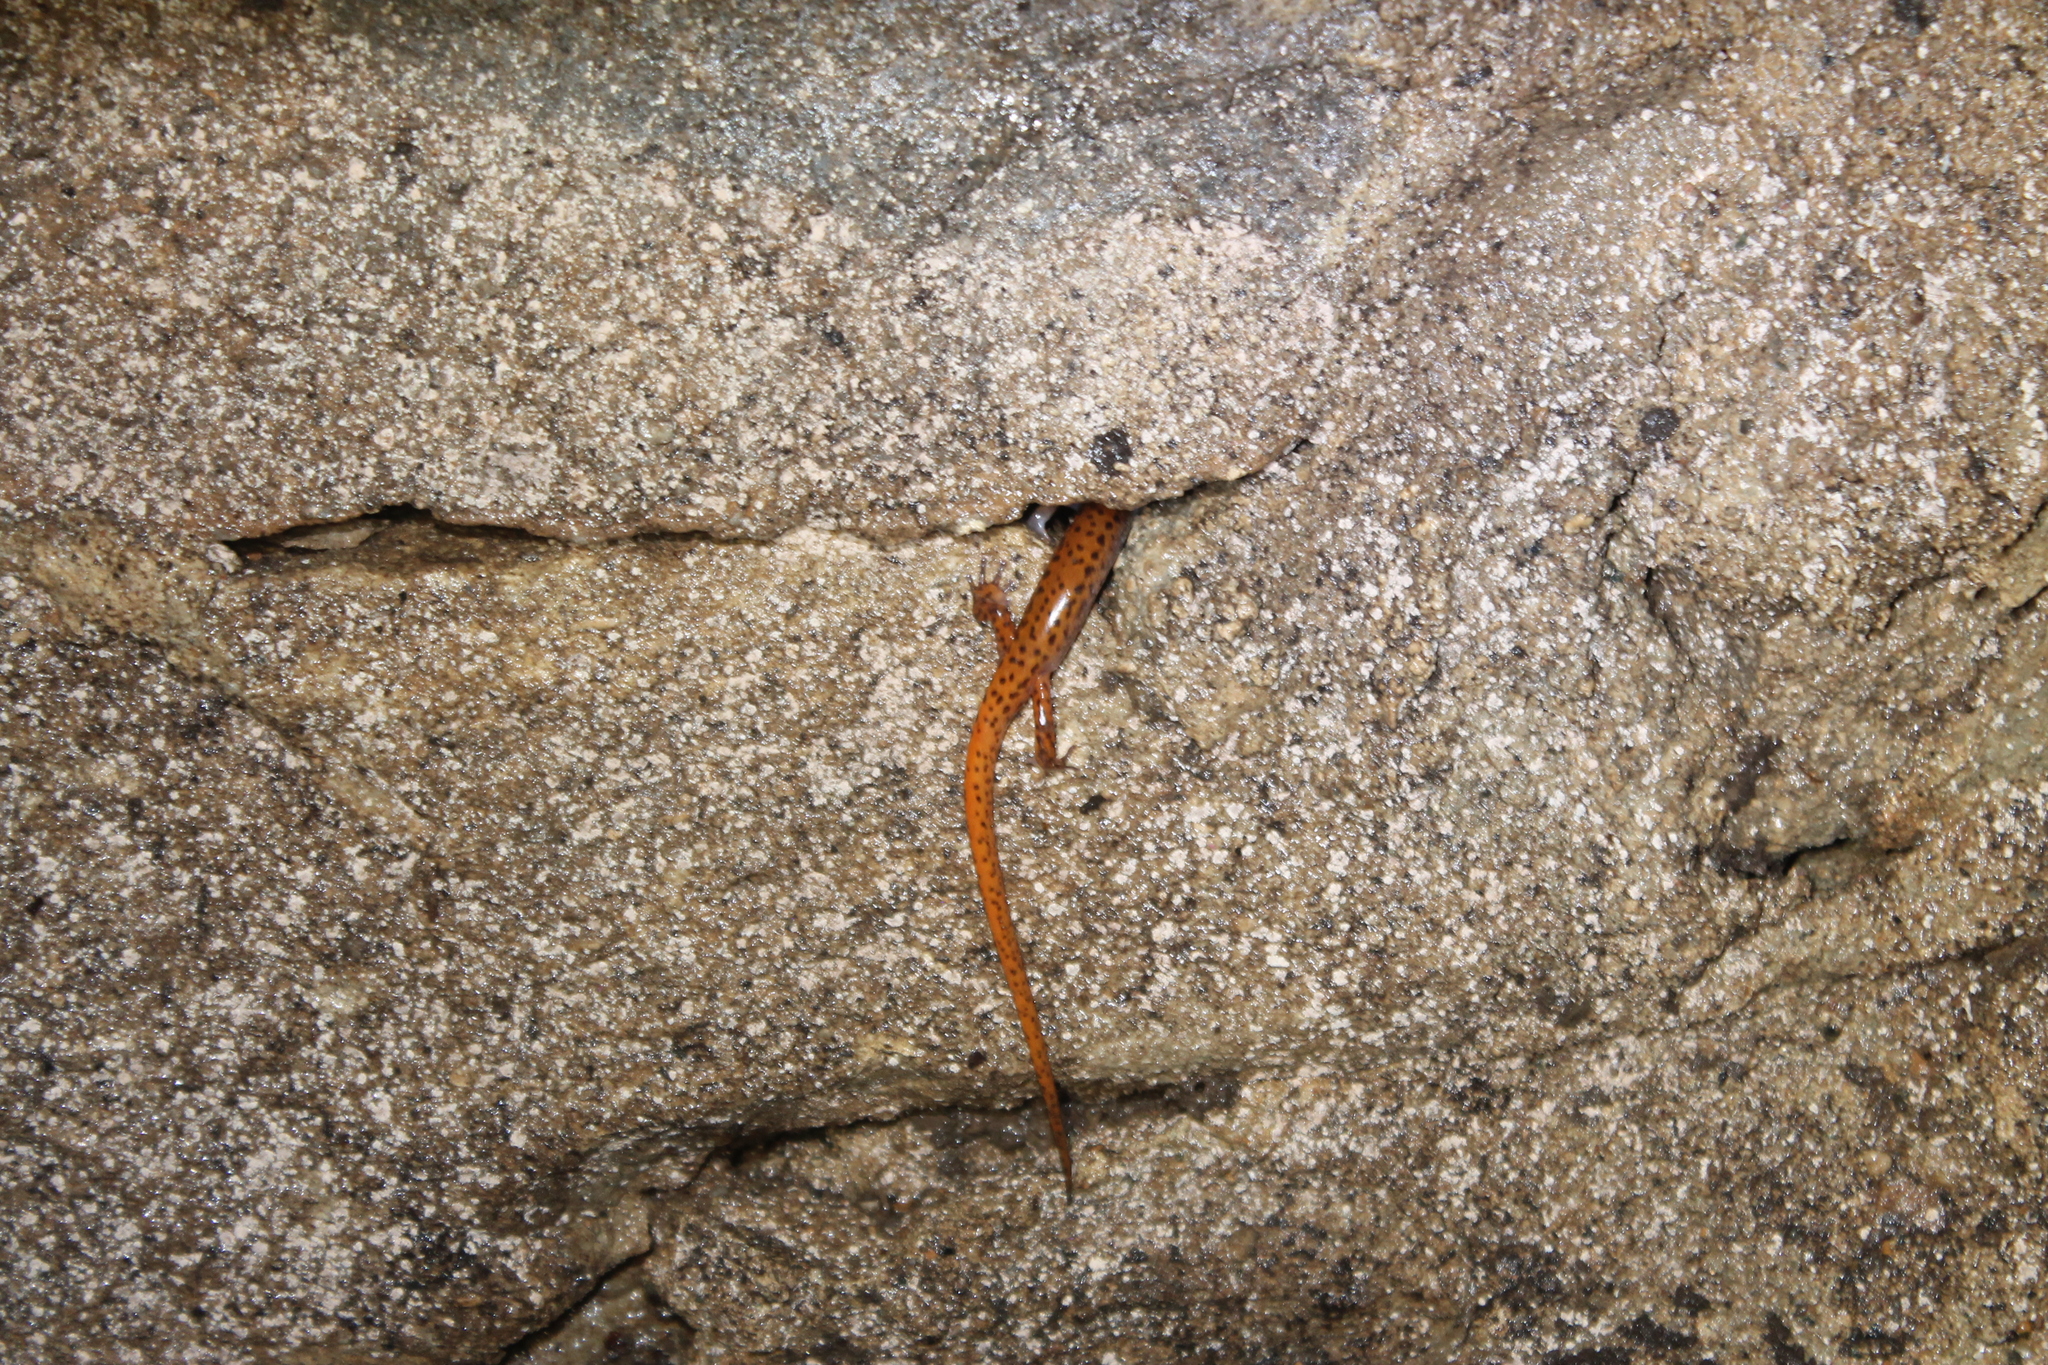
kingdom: Animalia
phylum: Chordata
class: Amphibia
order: Caudata
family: Plethodontidae
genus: Eurycea
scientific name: Eurycea lucifuga
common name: Cave salamander
